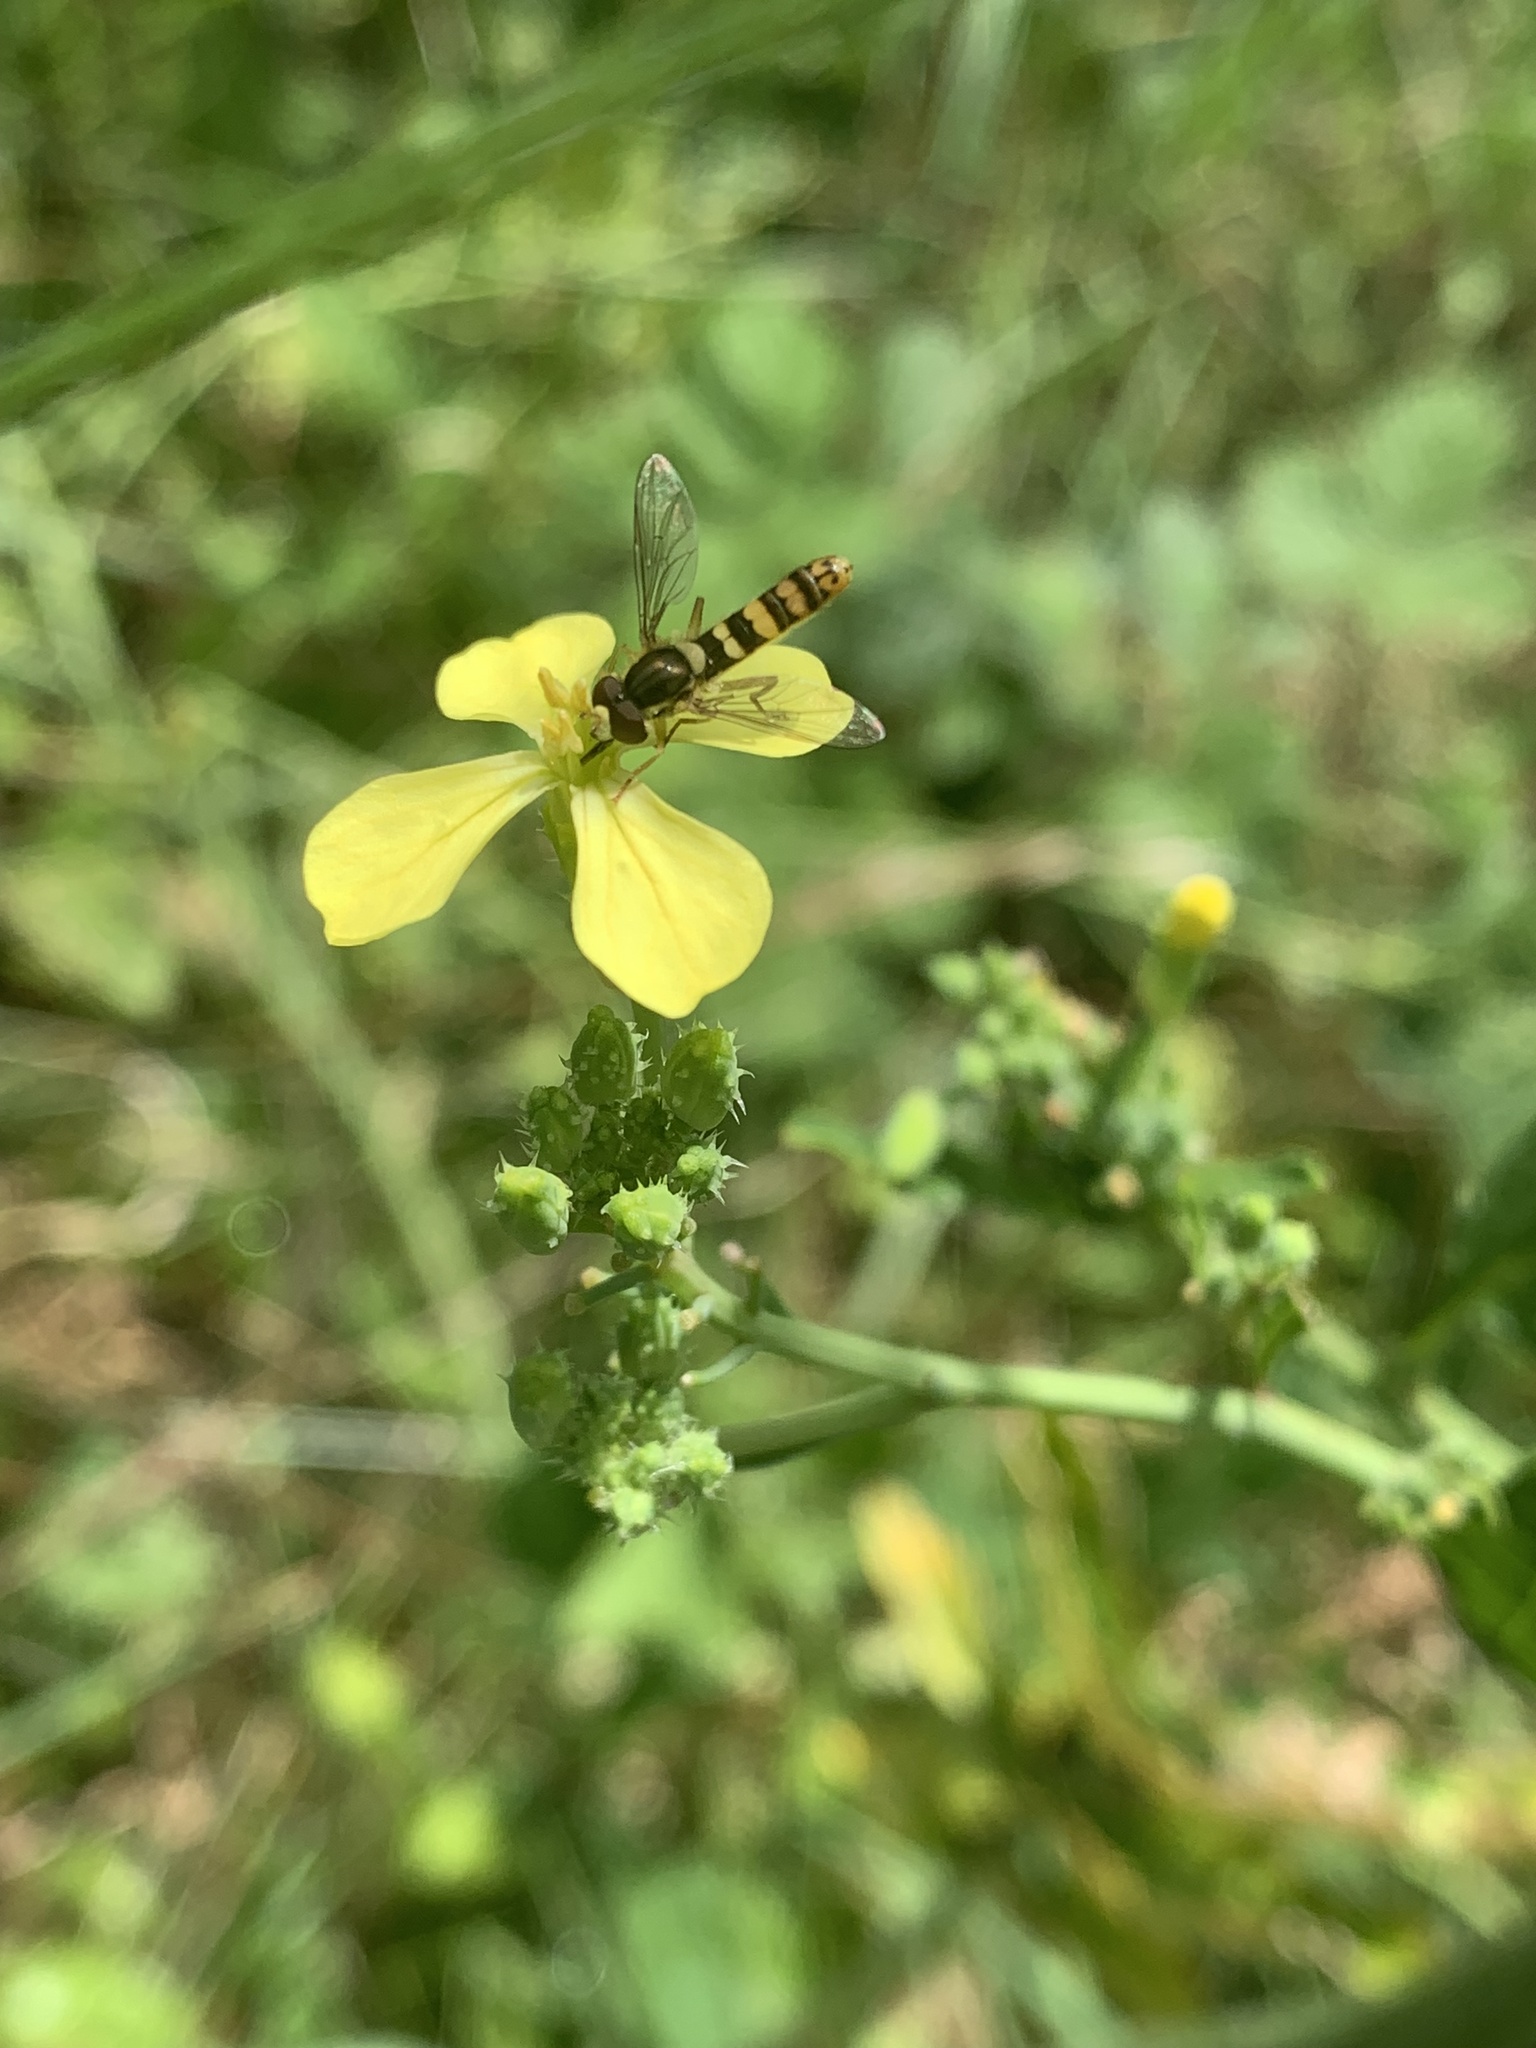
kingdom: Animalia
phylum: Arthropoda
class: Insecta
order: Diptera
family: Syrphidae
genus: Sphaerophoria
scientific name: Sphaerophoria
